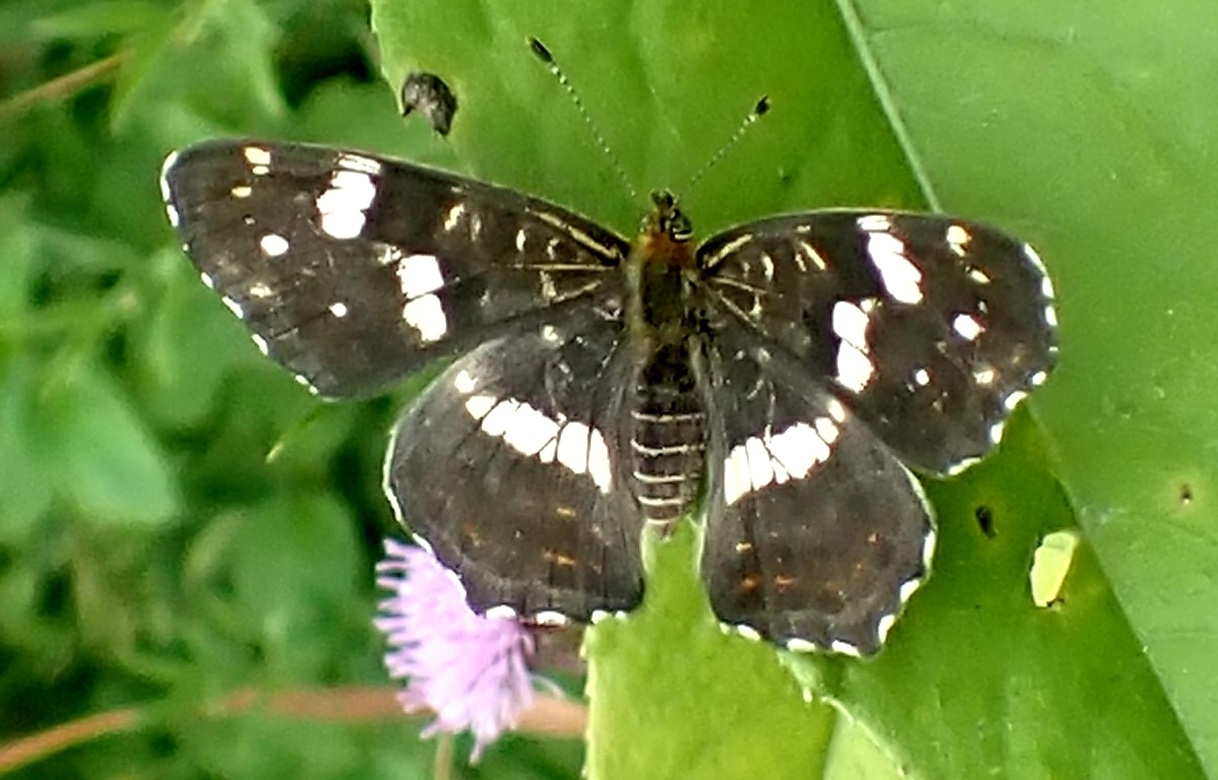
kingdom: Animalia
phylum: Arthropoda
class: Insecta
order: Lepidoptera
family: Nymphalidae
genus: Araschnia
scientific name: Araschnia levana
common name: Map butterfly
